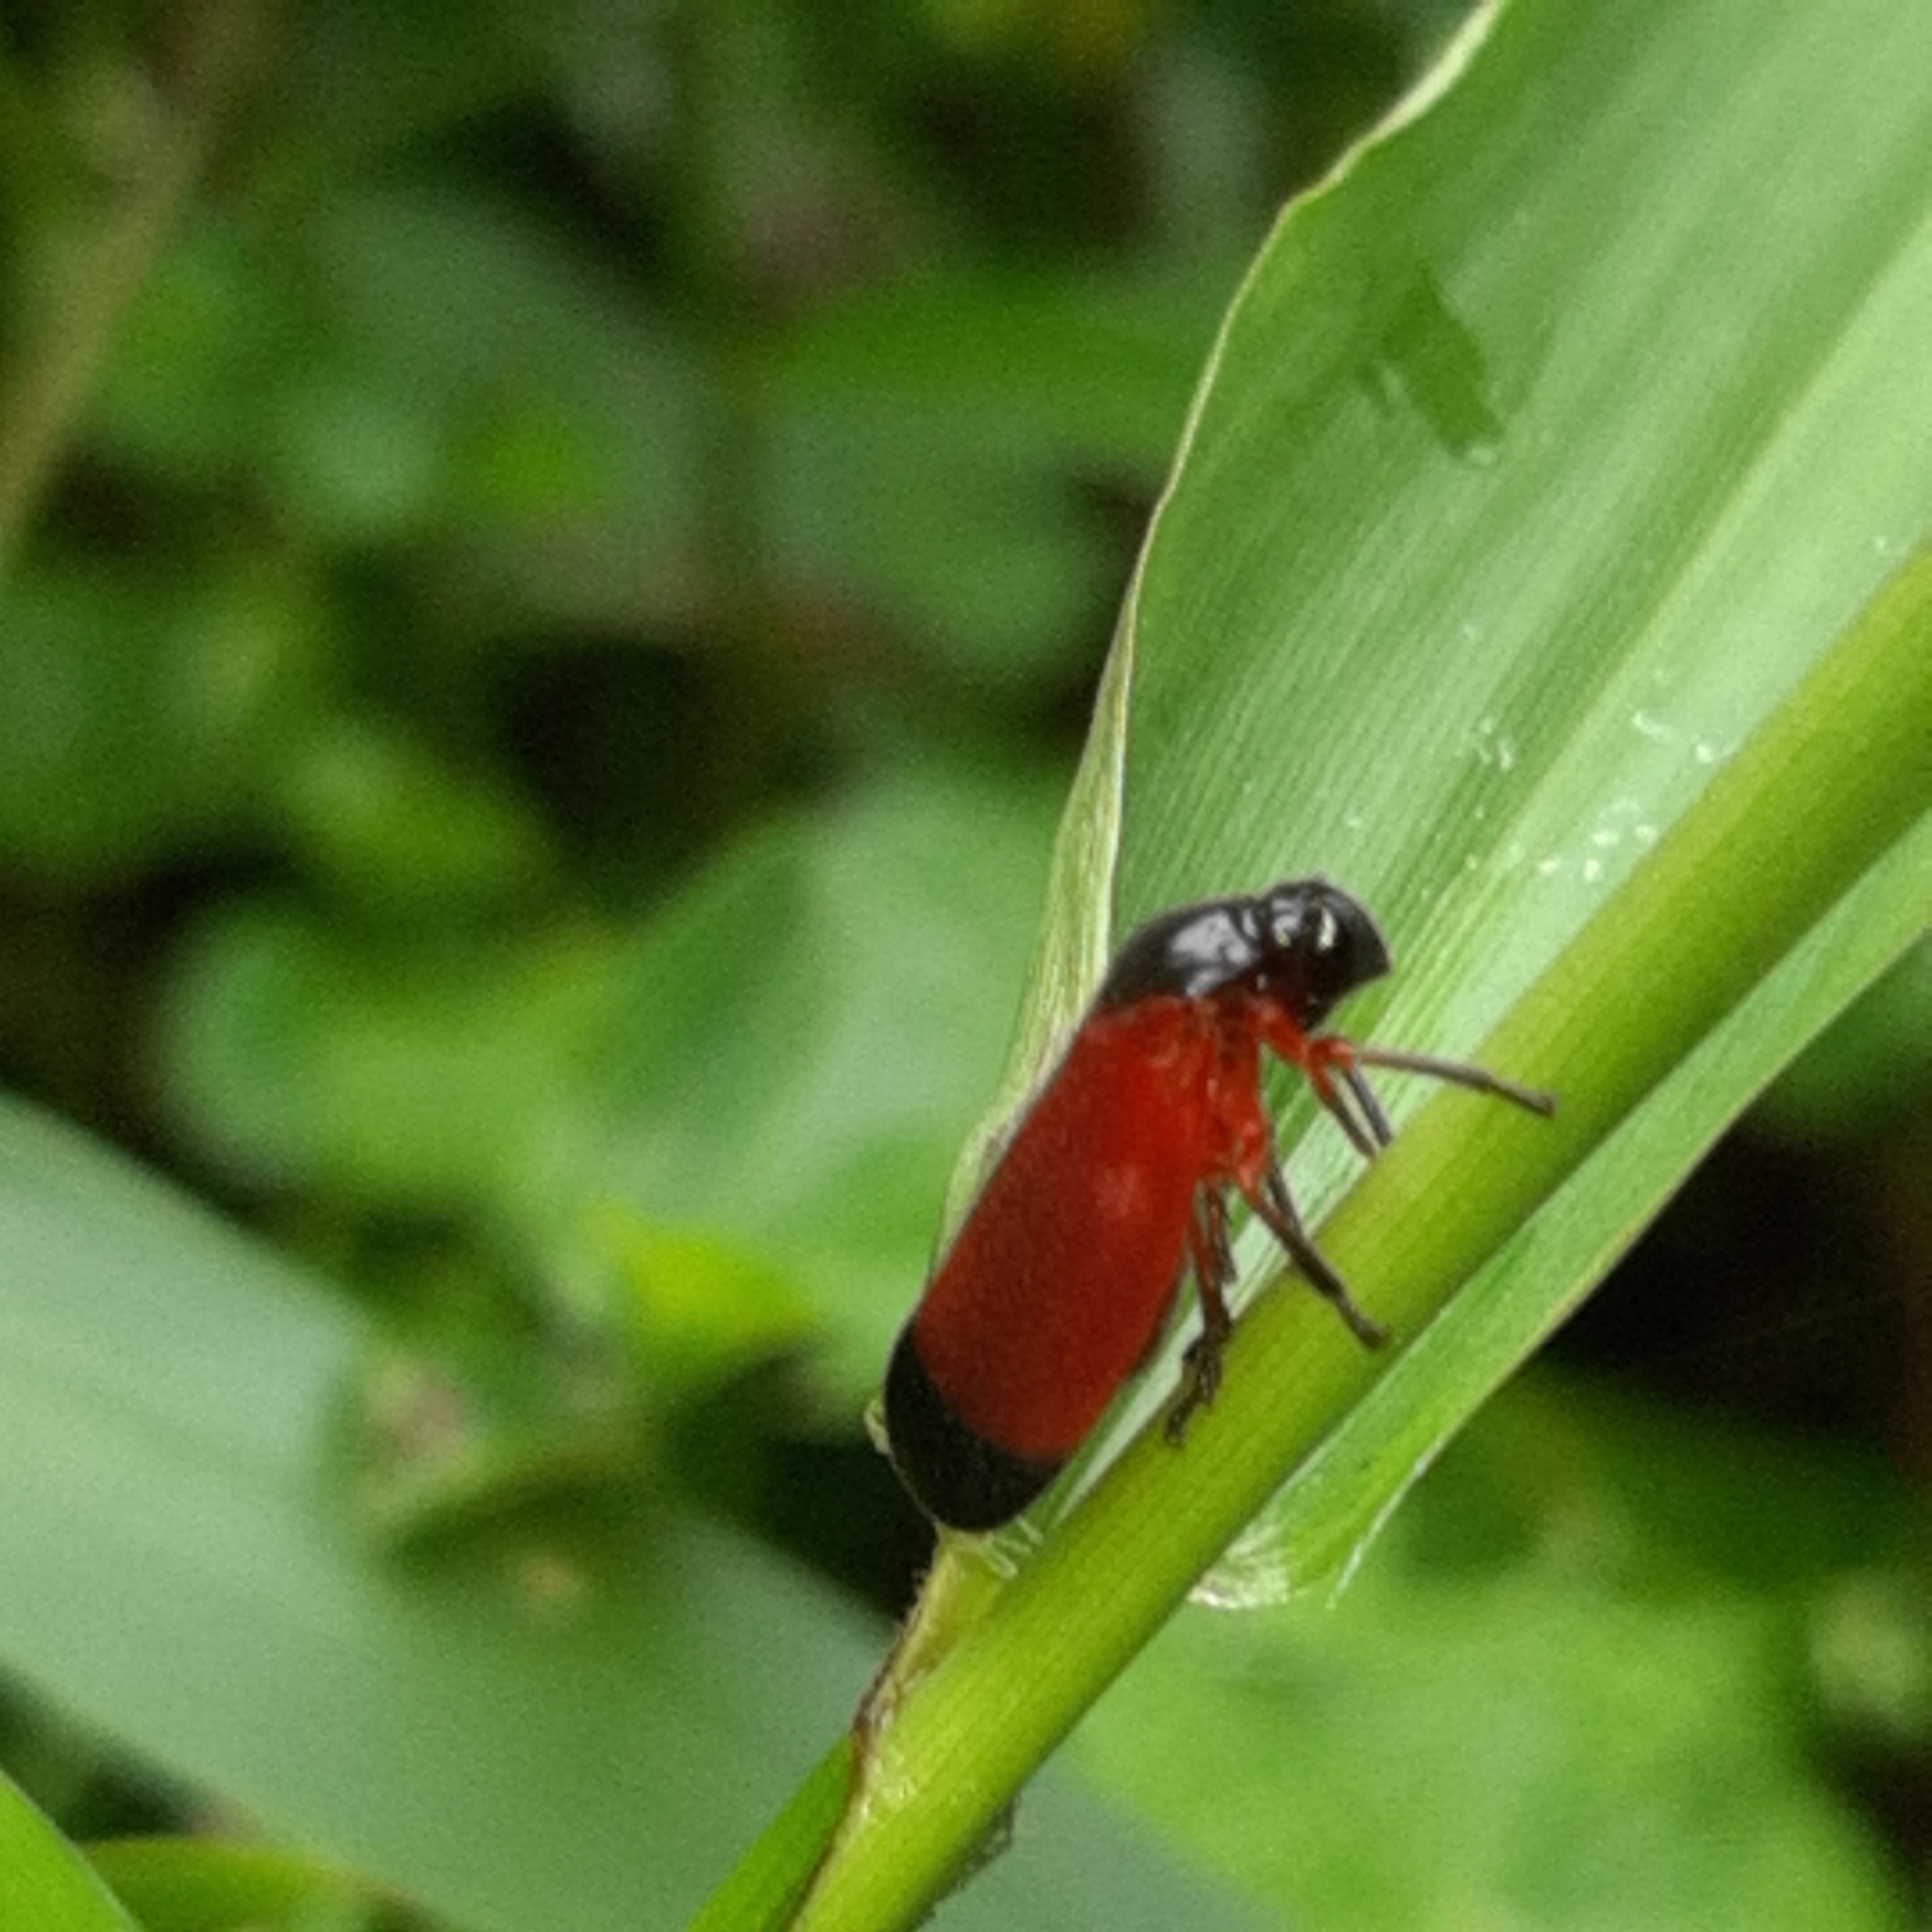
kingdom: Animalia
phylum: Arthropoda
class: Insecta
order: Hemiptera
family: Cercopidae
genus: Sphenorhina
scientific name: Sphenorhina conspicua
